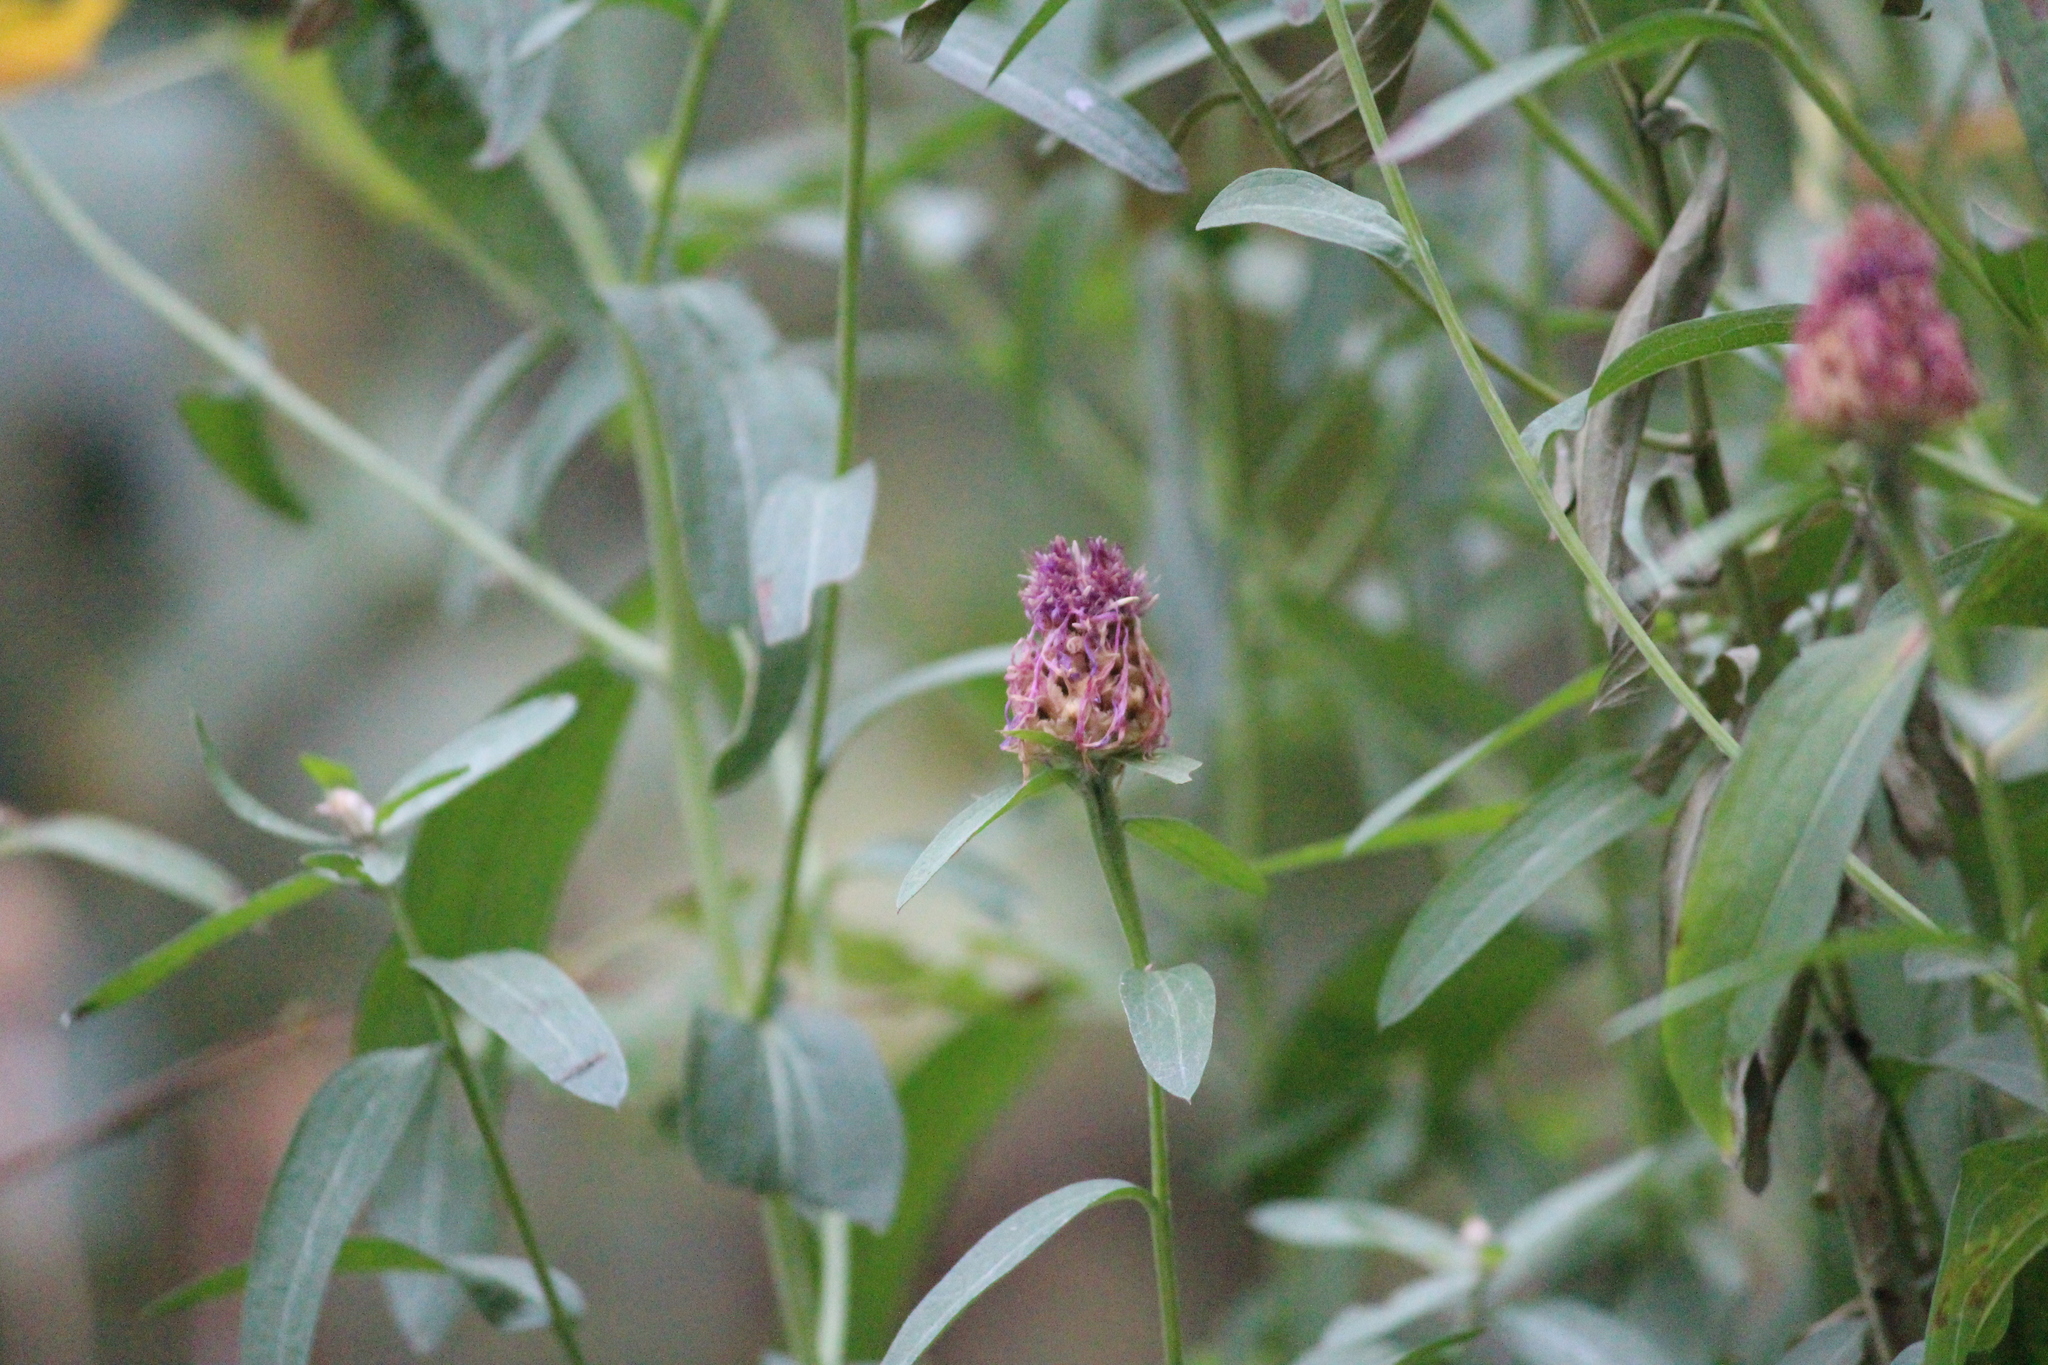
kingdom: Plantae
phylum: Tracheophyta
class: Magnoliopsida
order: Asterales
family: Asteraceae
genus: Centaurea
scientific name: Centaurea jacea
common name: Brown knapweed
